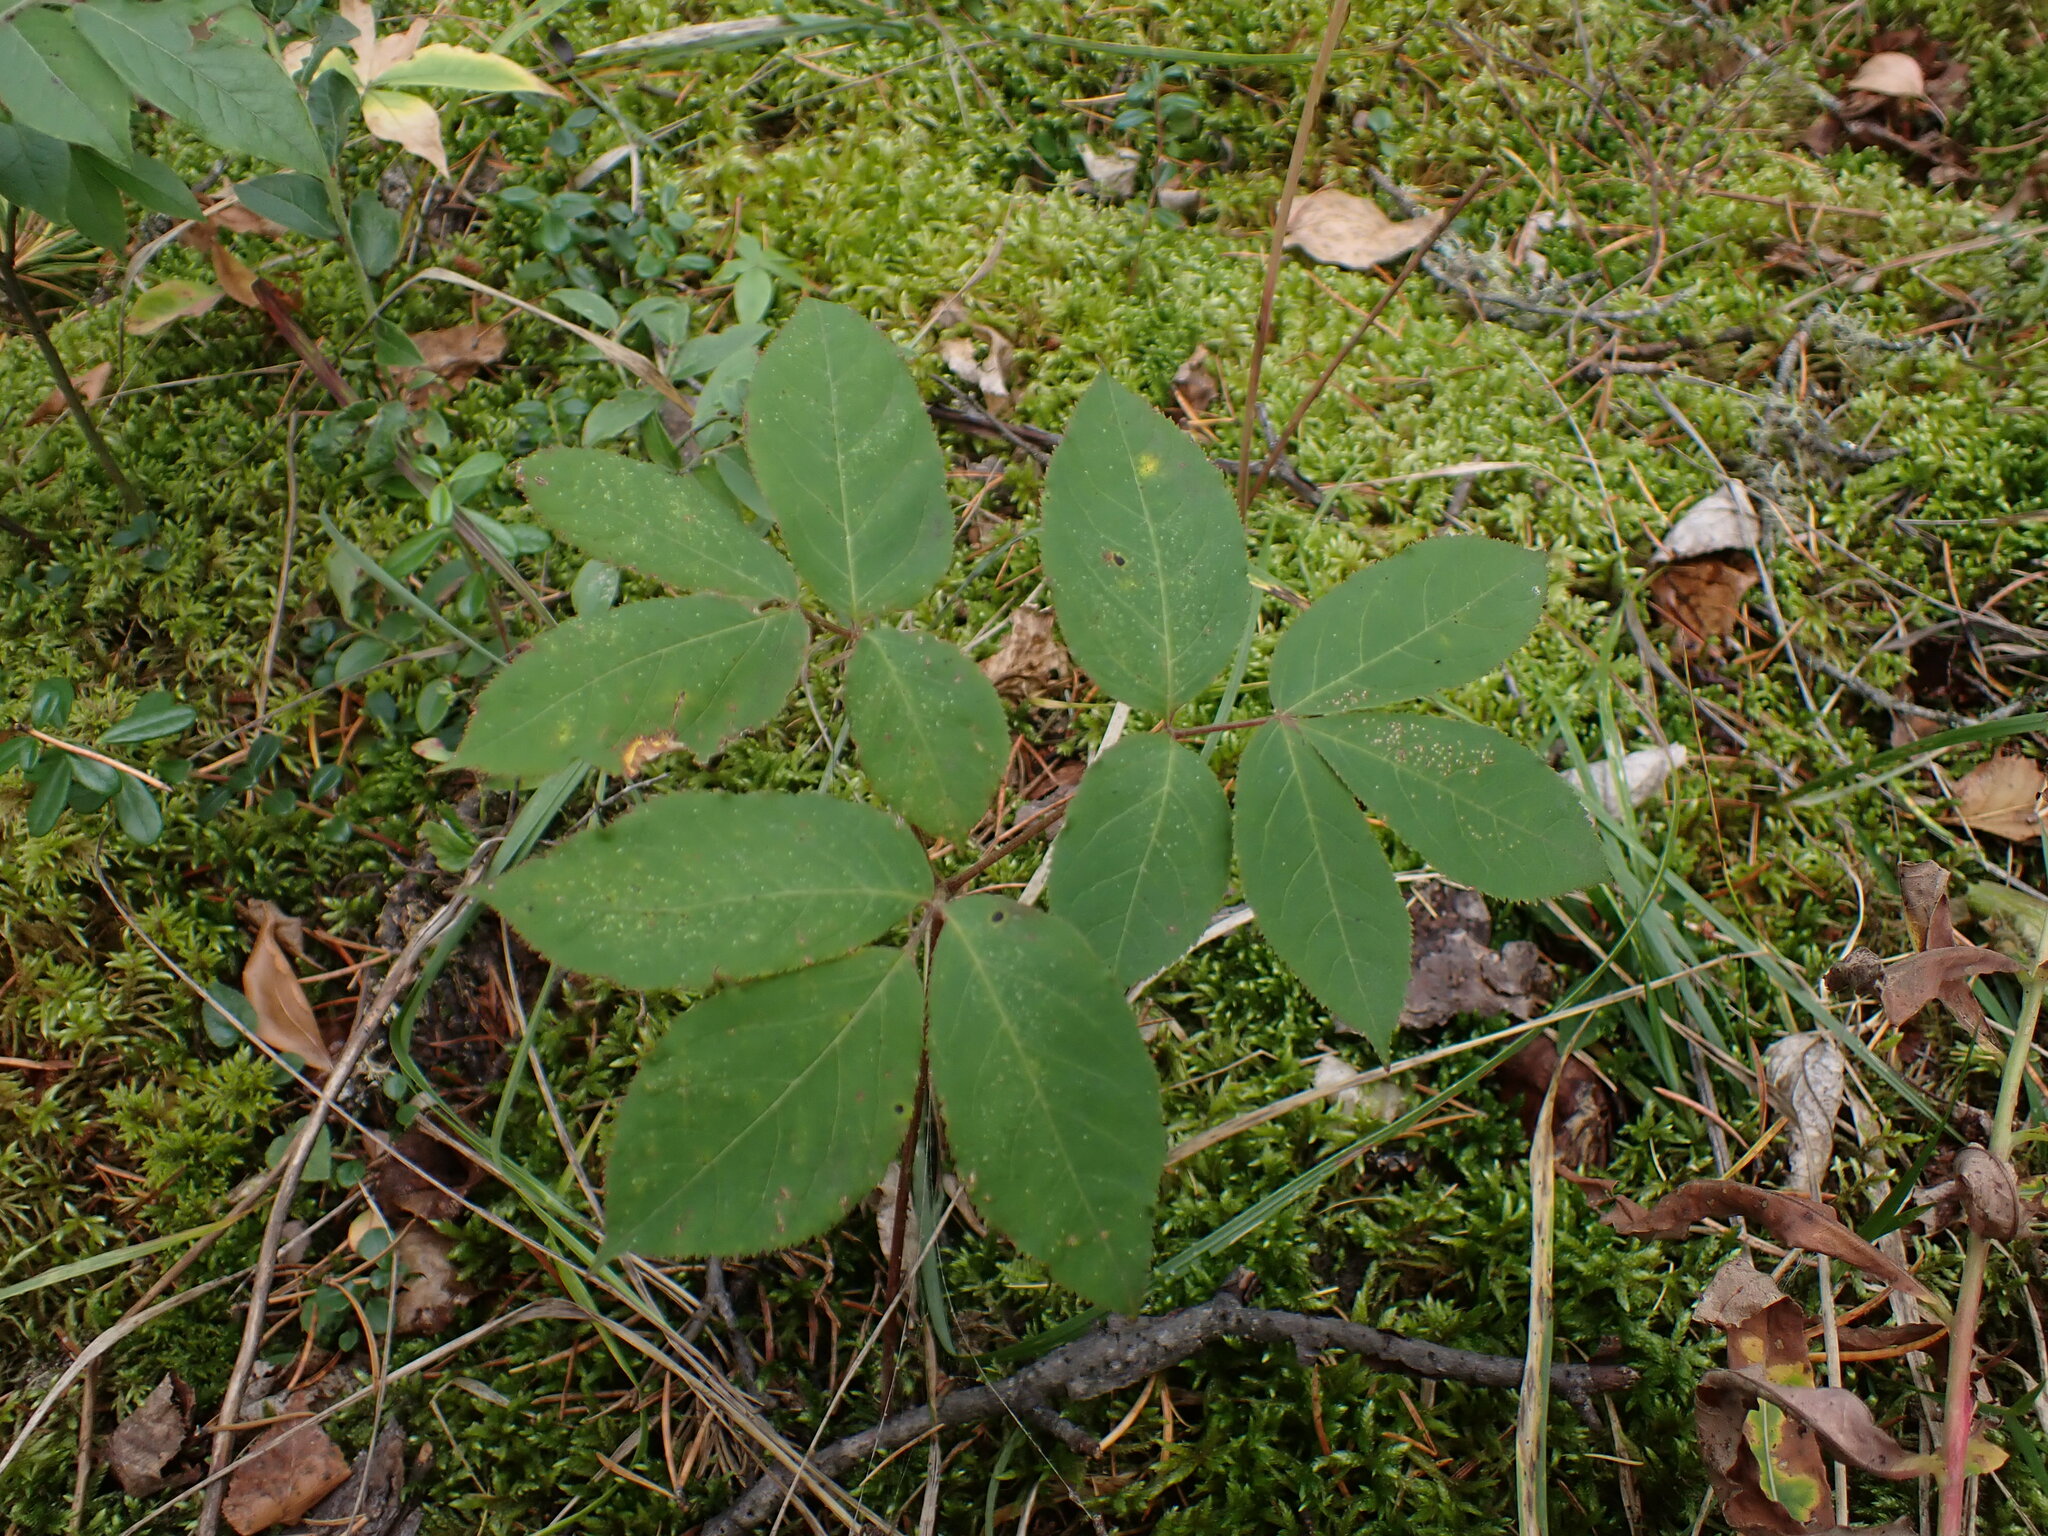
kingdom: Plantae
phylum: Tracheophyta
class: Magnoliopsida
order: Apiales
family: Araliaceae
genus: Aralia
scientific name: Aralia nudicaulis
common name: Wild sarsaparilla
